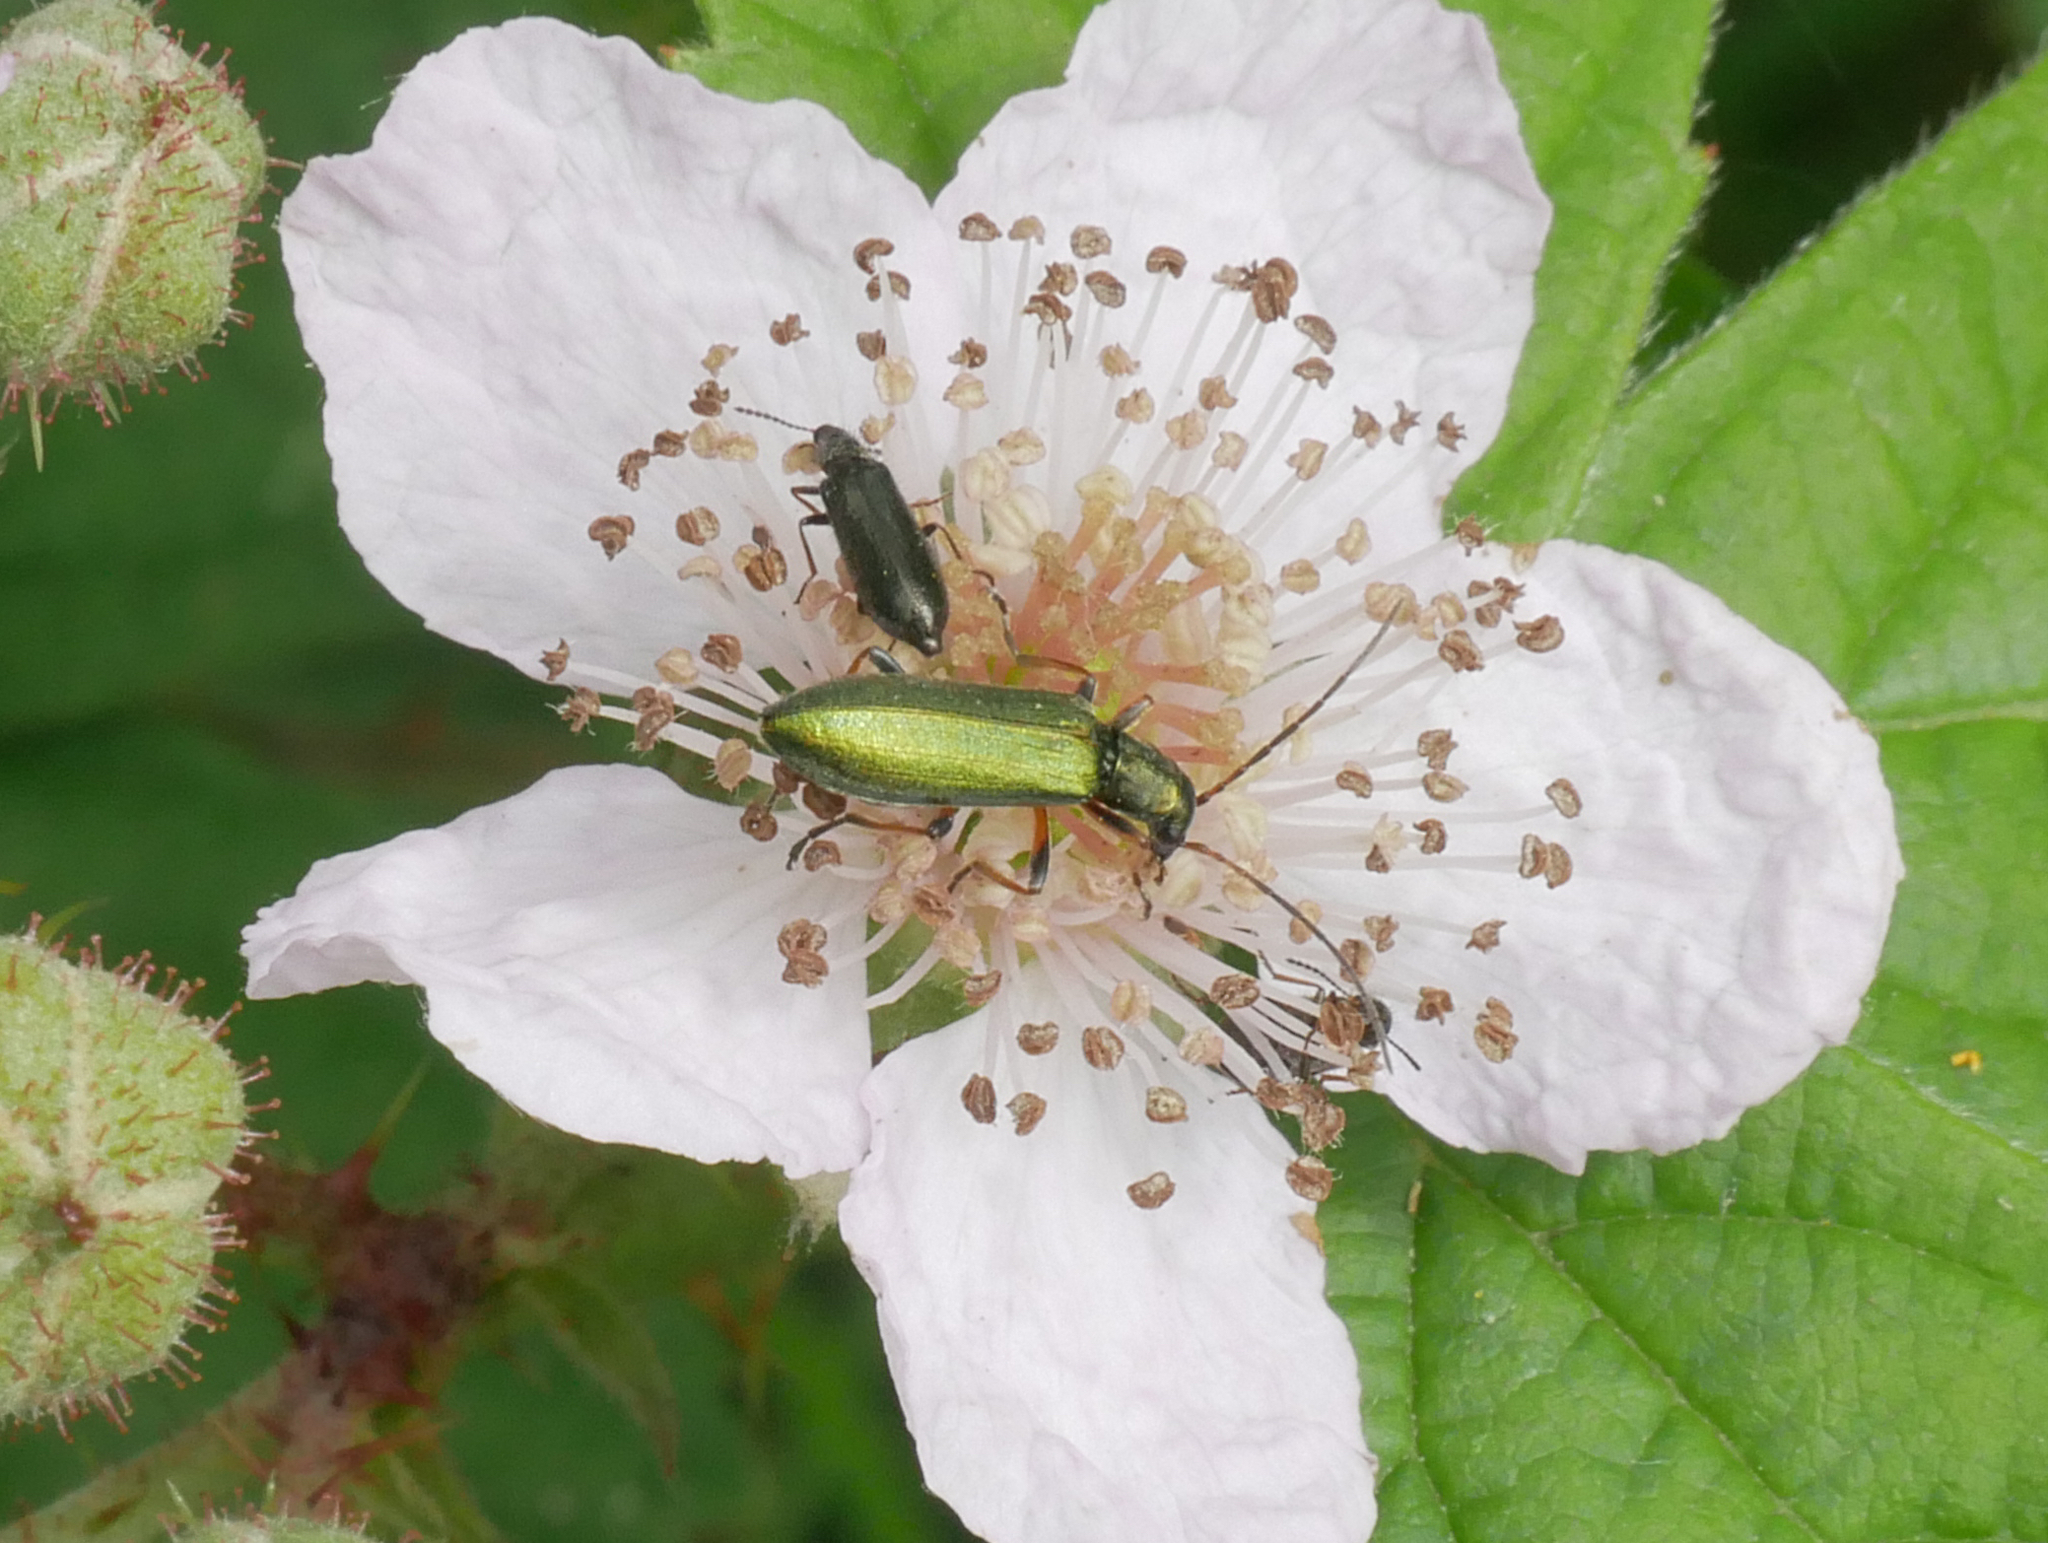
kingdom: Animalia
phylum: Arthropoda
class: Insecta
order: Coleoptera
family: Oedemeridae
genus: Chrysanthia
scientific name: Chrysanthia geniculata
